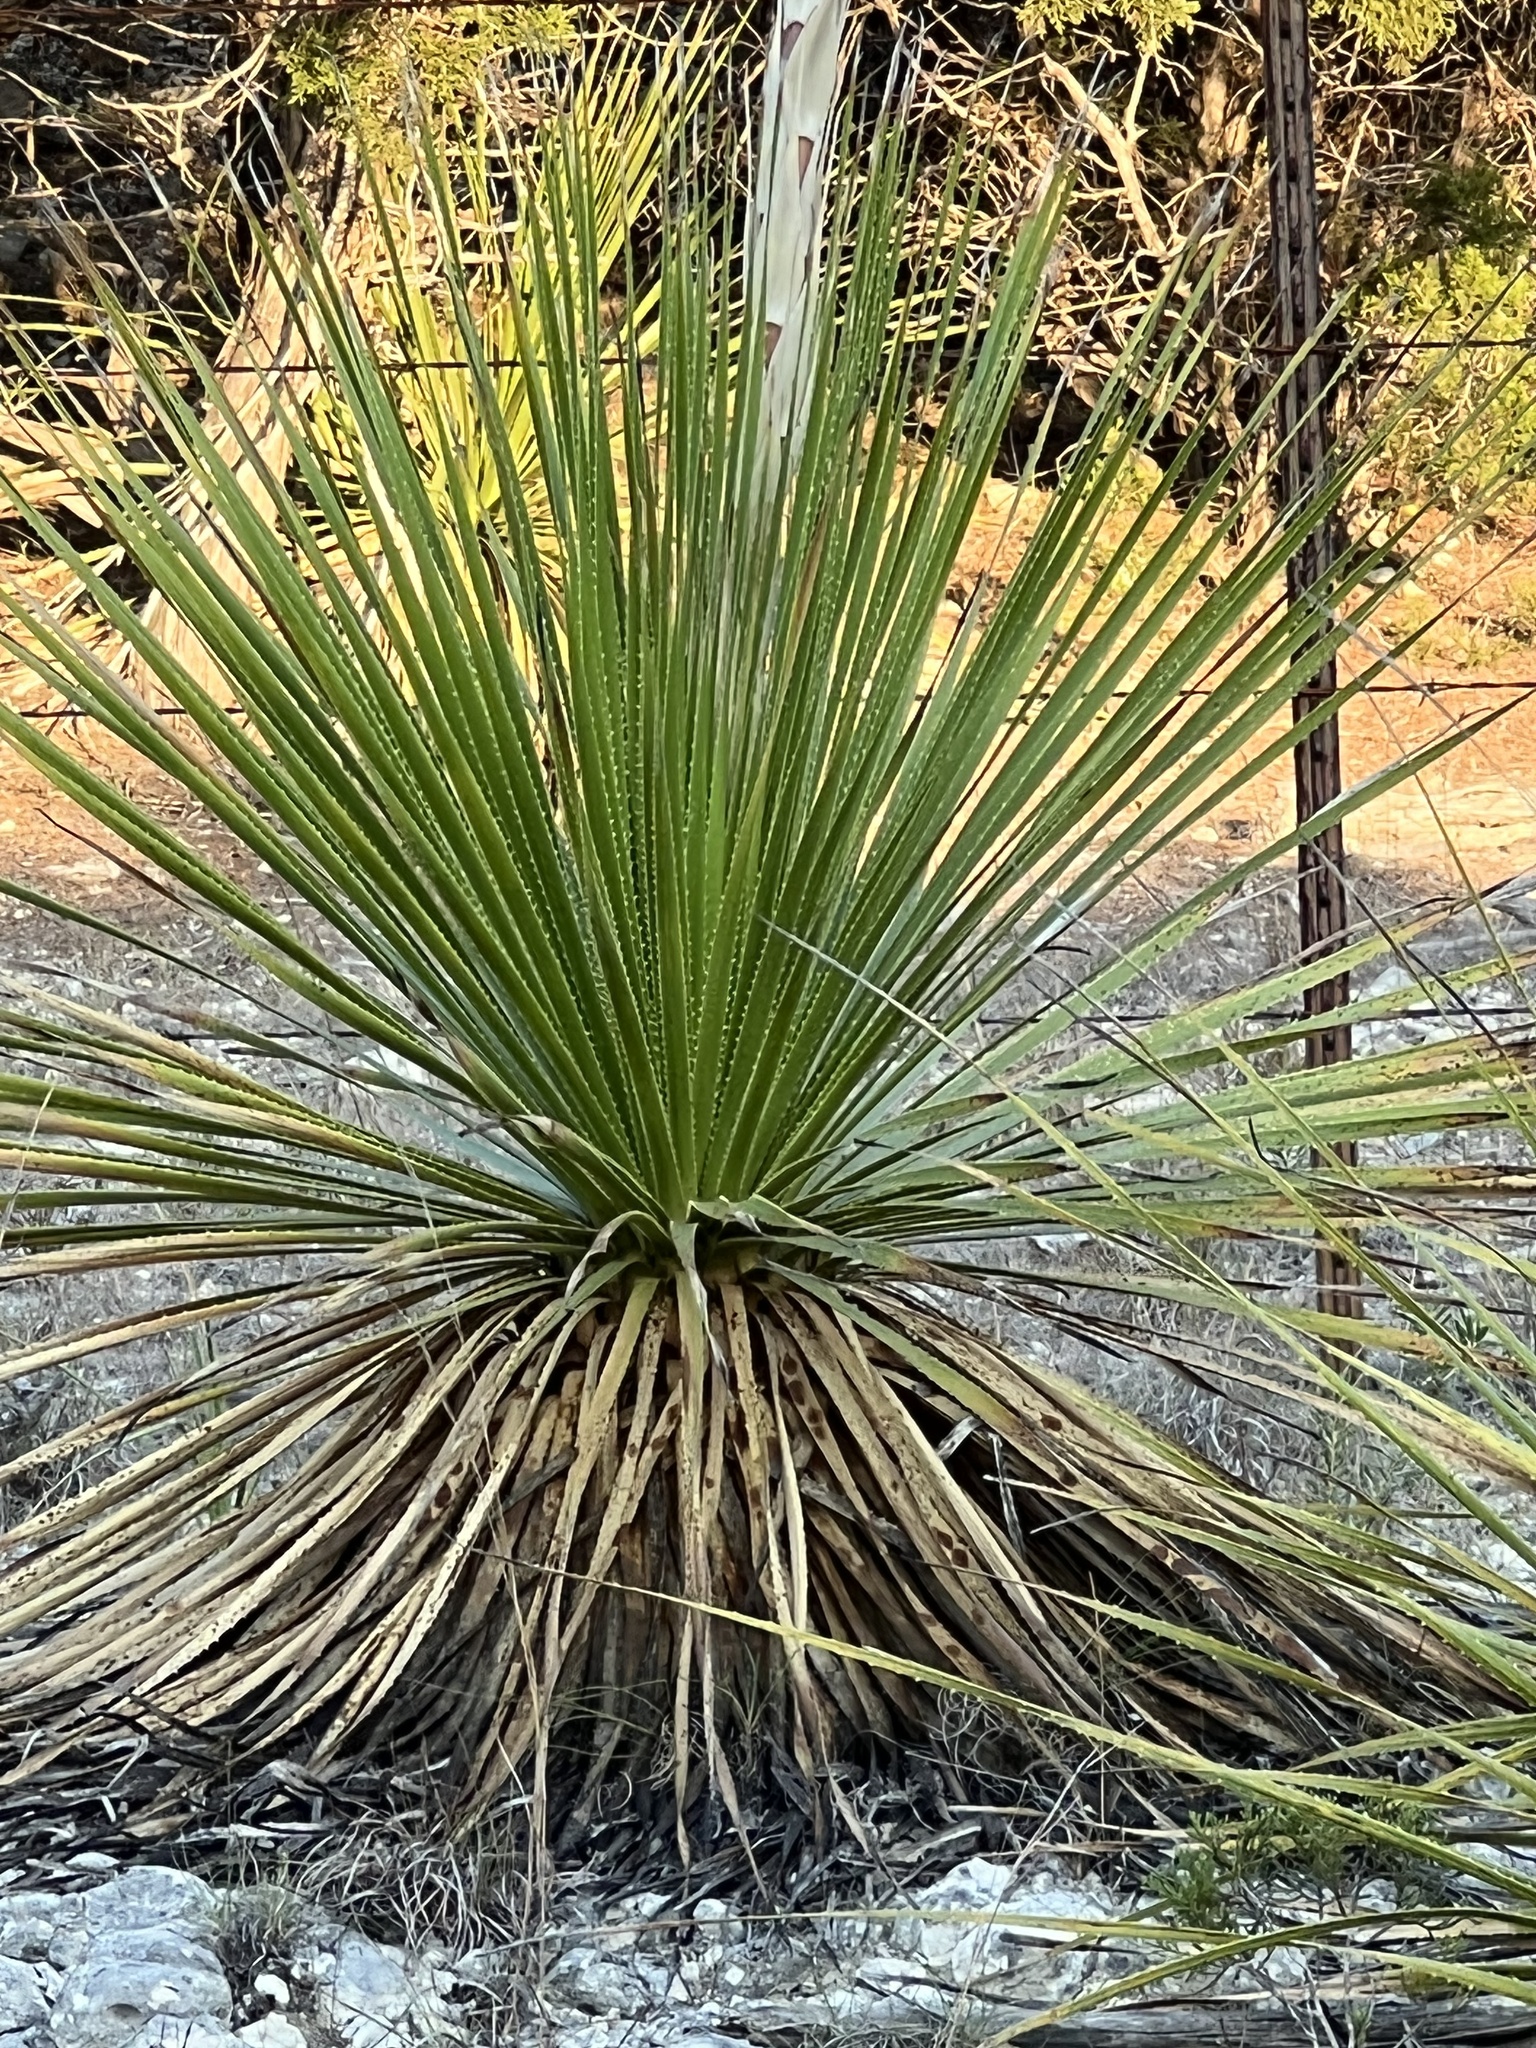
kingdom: Plantae
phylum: Tracheophyta
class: Liliopsida
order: Asparagales
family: Asparagaceae
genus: Dasylirion
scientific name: Dasylirion texanum
